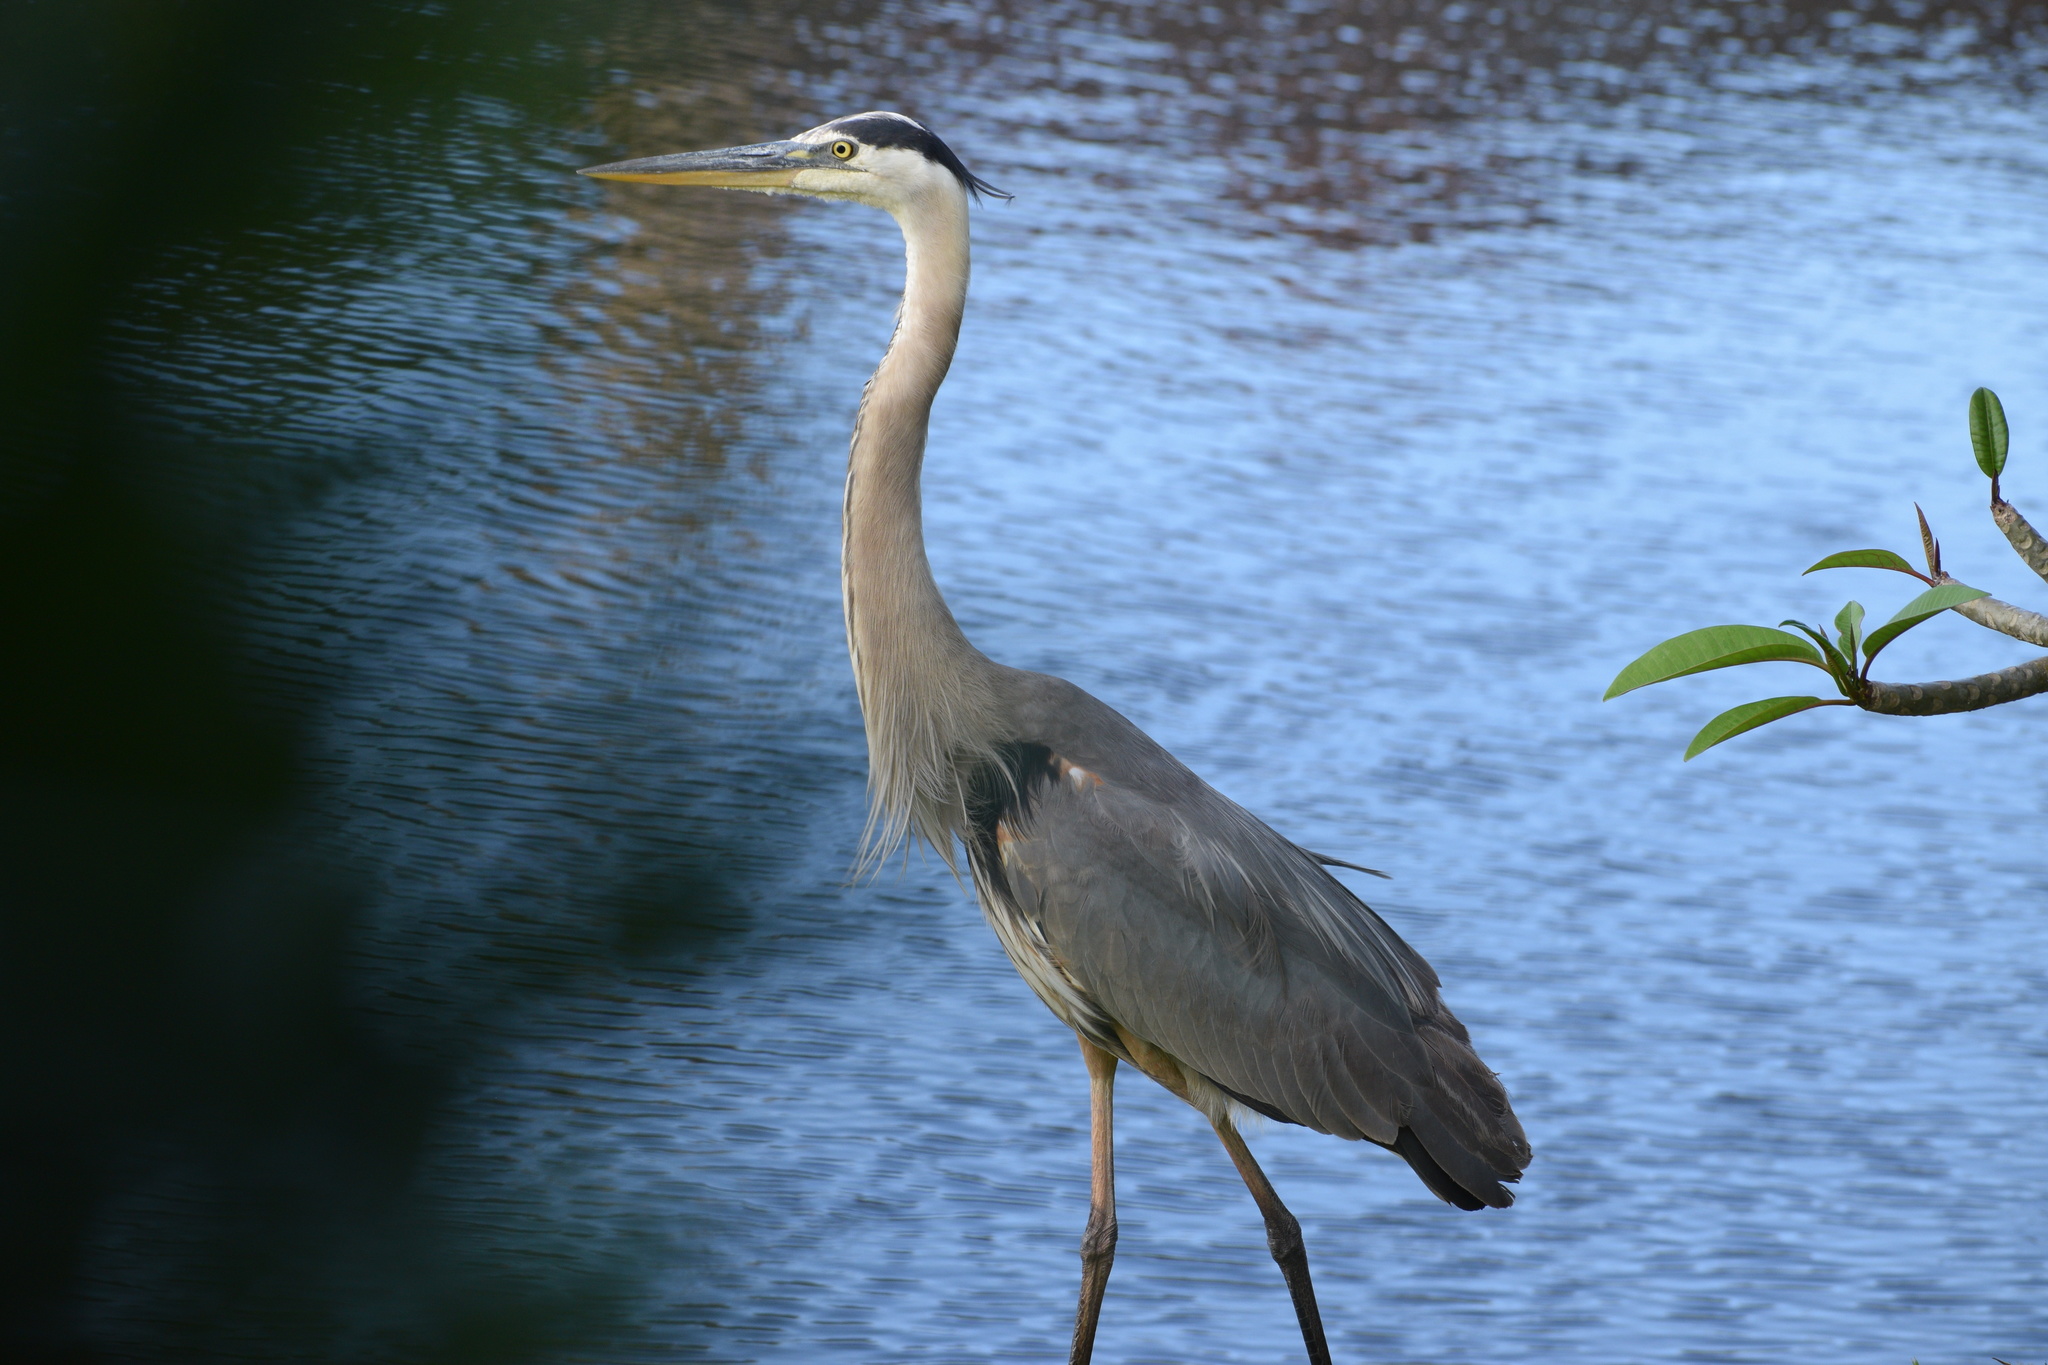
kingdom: Animalia
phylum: Chordata
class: Aves
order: Pelecaniformes
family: Ardeidae
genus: Ardea
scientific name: Ardea herodias
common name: Great blue heron
